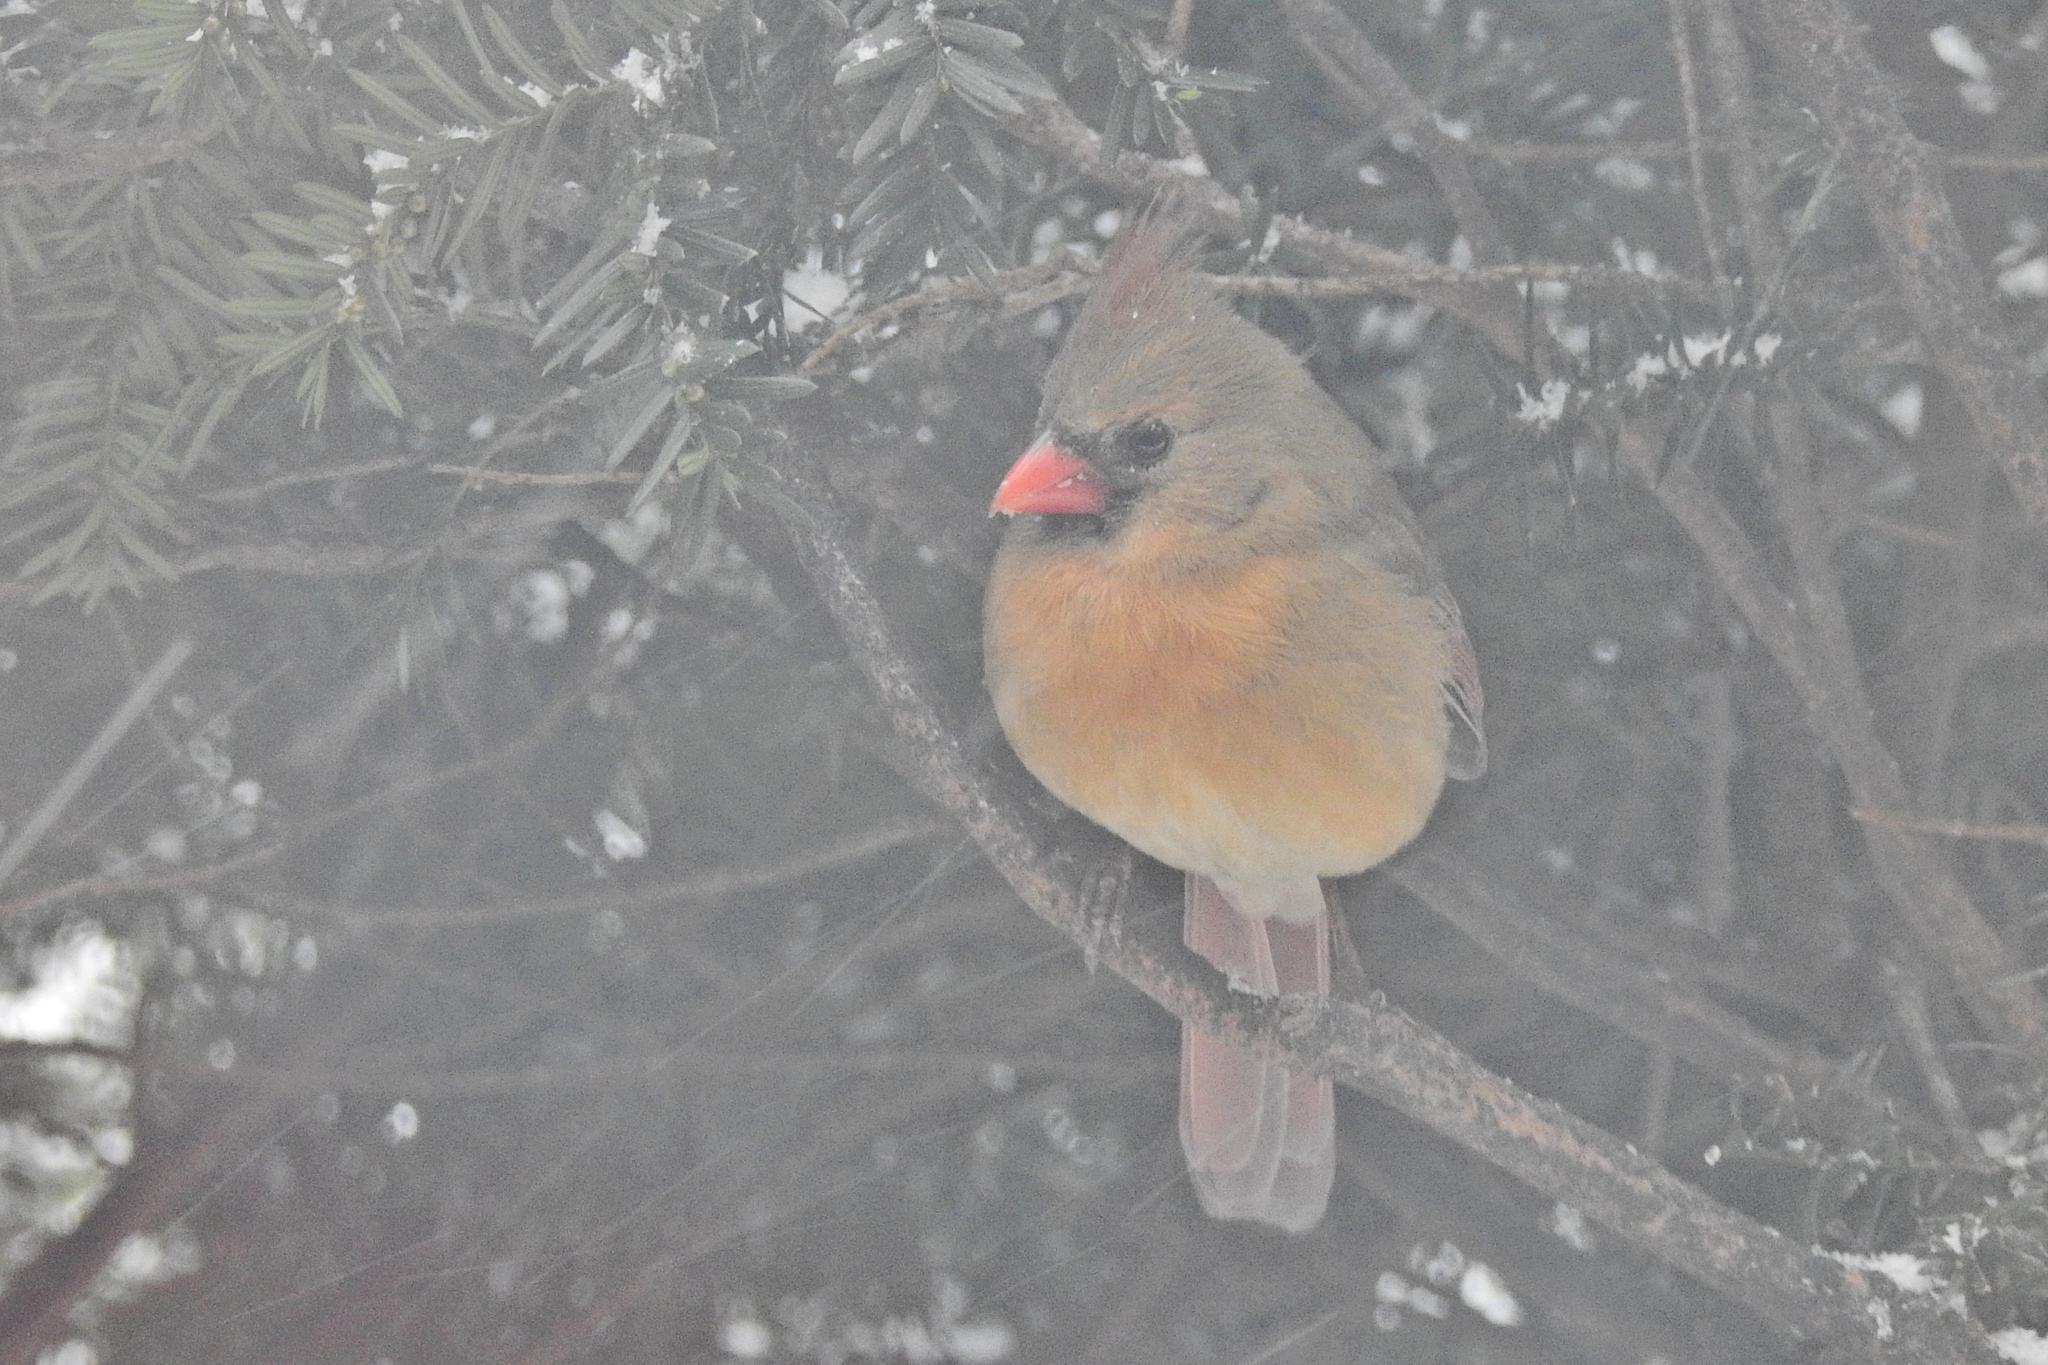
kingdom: Animalia
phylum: Chordata
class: Aves
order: Passeriformes
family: Cardinalidae
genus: Cardinalis
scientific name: Cardinalis cardinalis
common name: Northern cardinal
